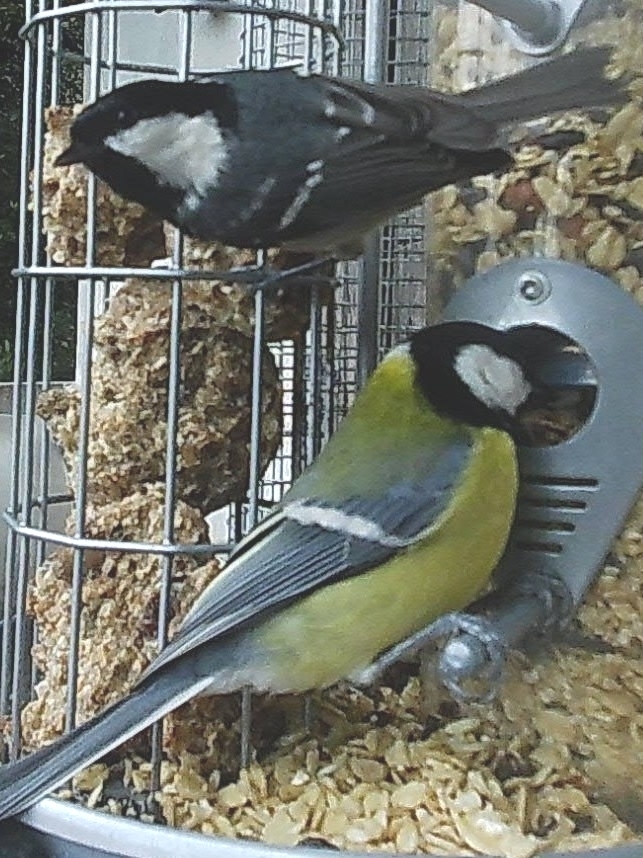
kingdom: Animalia
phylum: Chordata
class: Aves
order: Passeriformes
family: Paridae
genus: Periparus
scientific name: Periparus ater
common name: Coal tit
